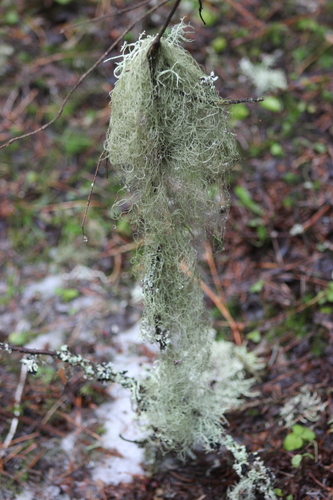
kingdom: Fungi
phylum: Ascomycota
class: Lecanoromycetes
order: Lecanorales
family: Parmeliaceae
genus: Bryoria
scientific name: Bryoria
